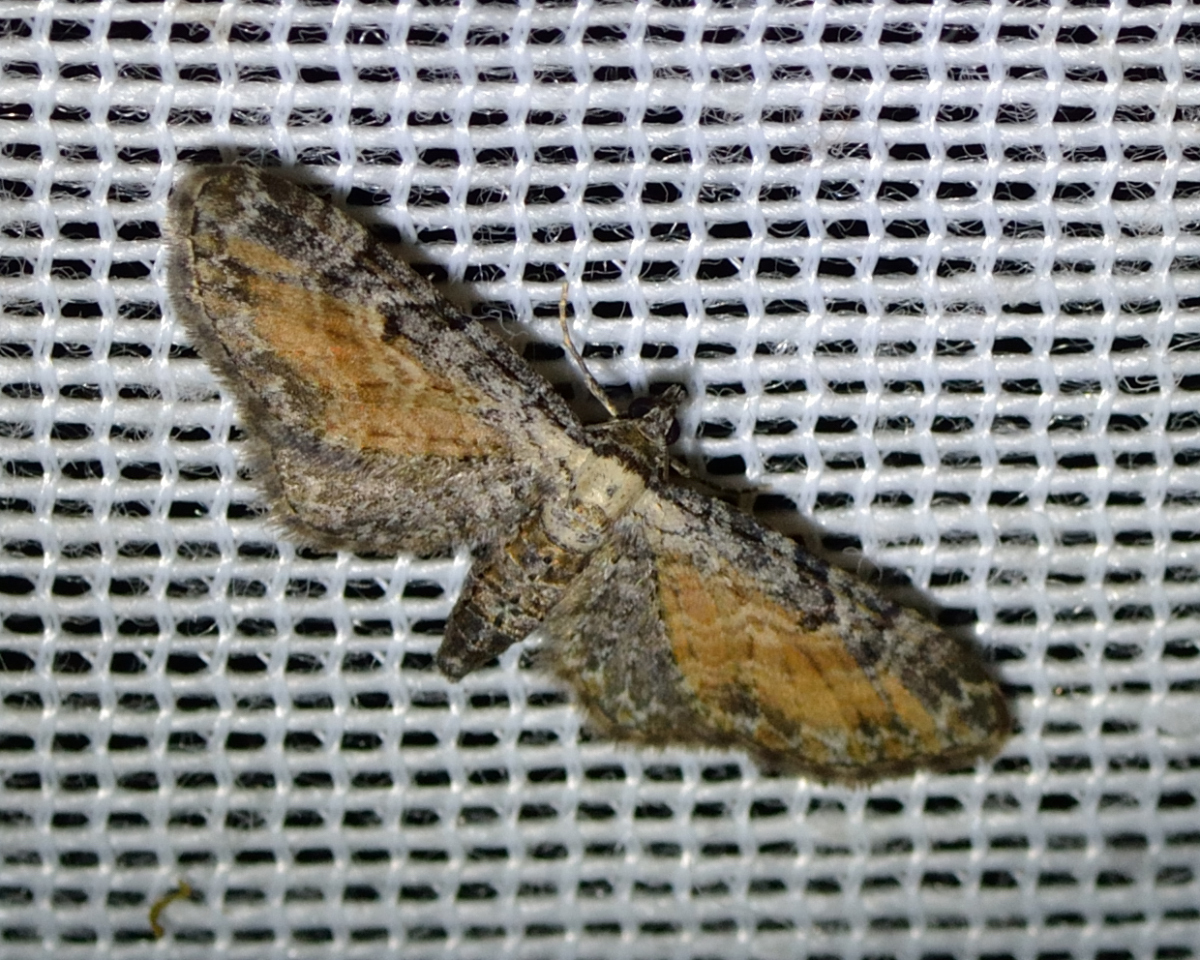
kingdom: Animalia
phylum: Arthropoda
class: Insecta
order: Lepidoptera
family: Geometridae
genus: Eupithecia
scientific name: Eupithecia icterata
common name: Tawny speckled pug
